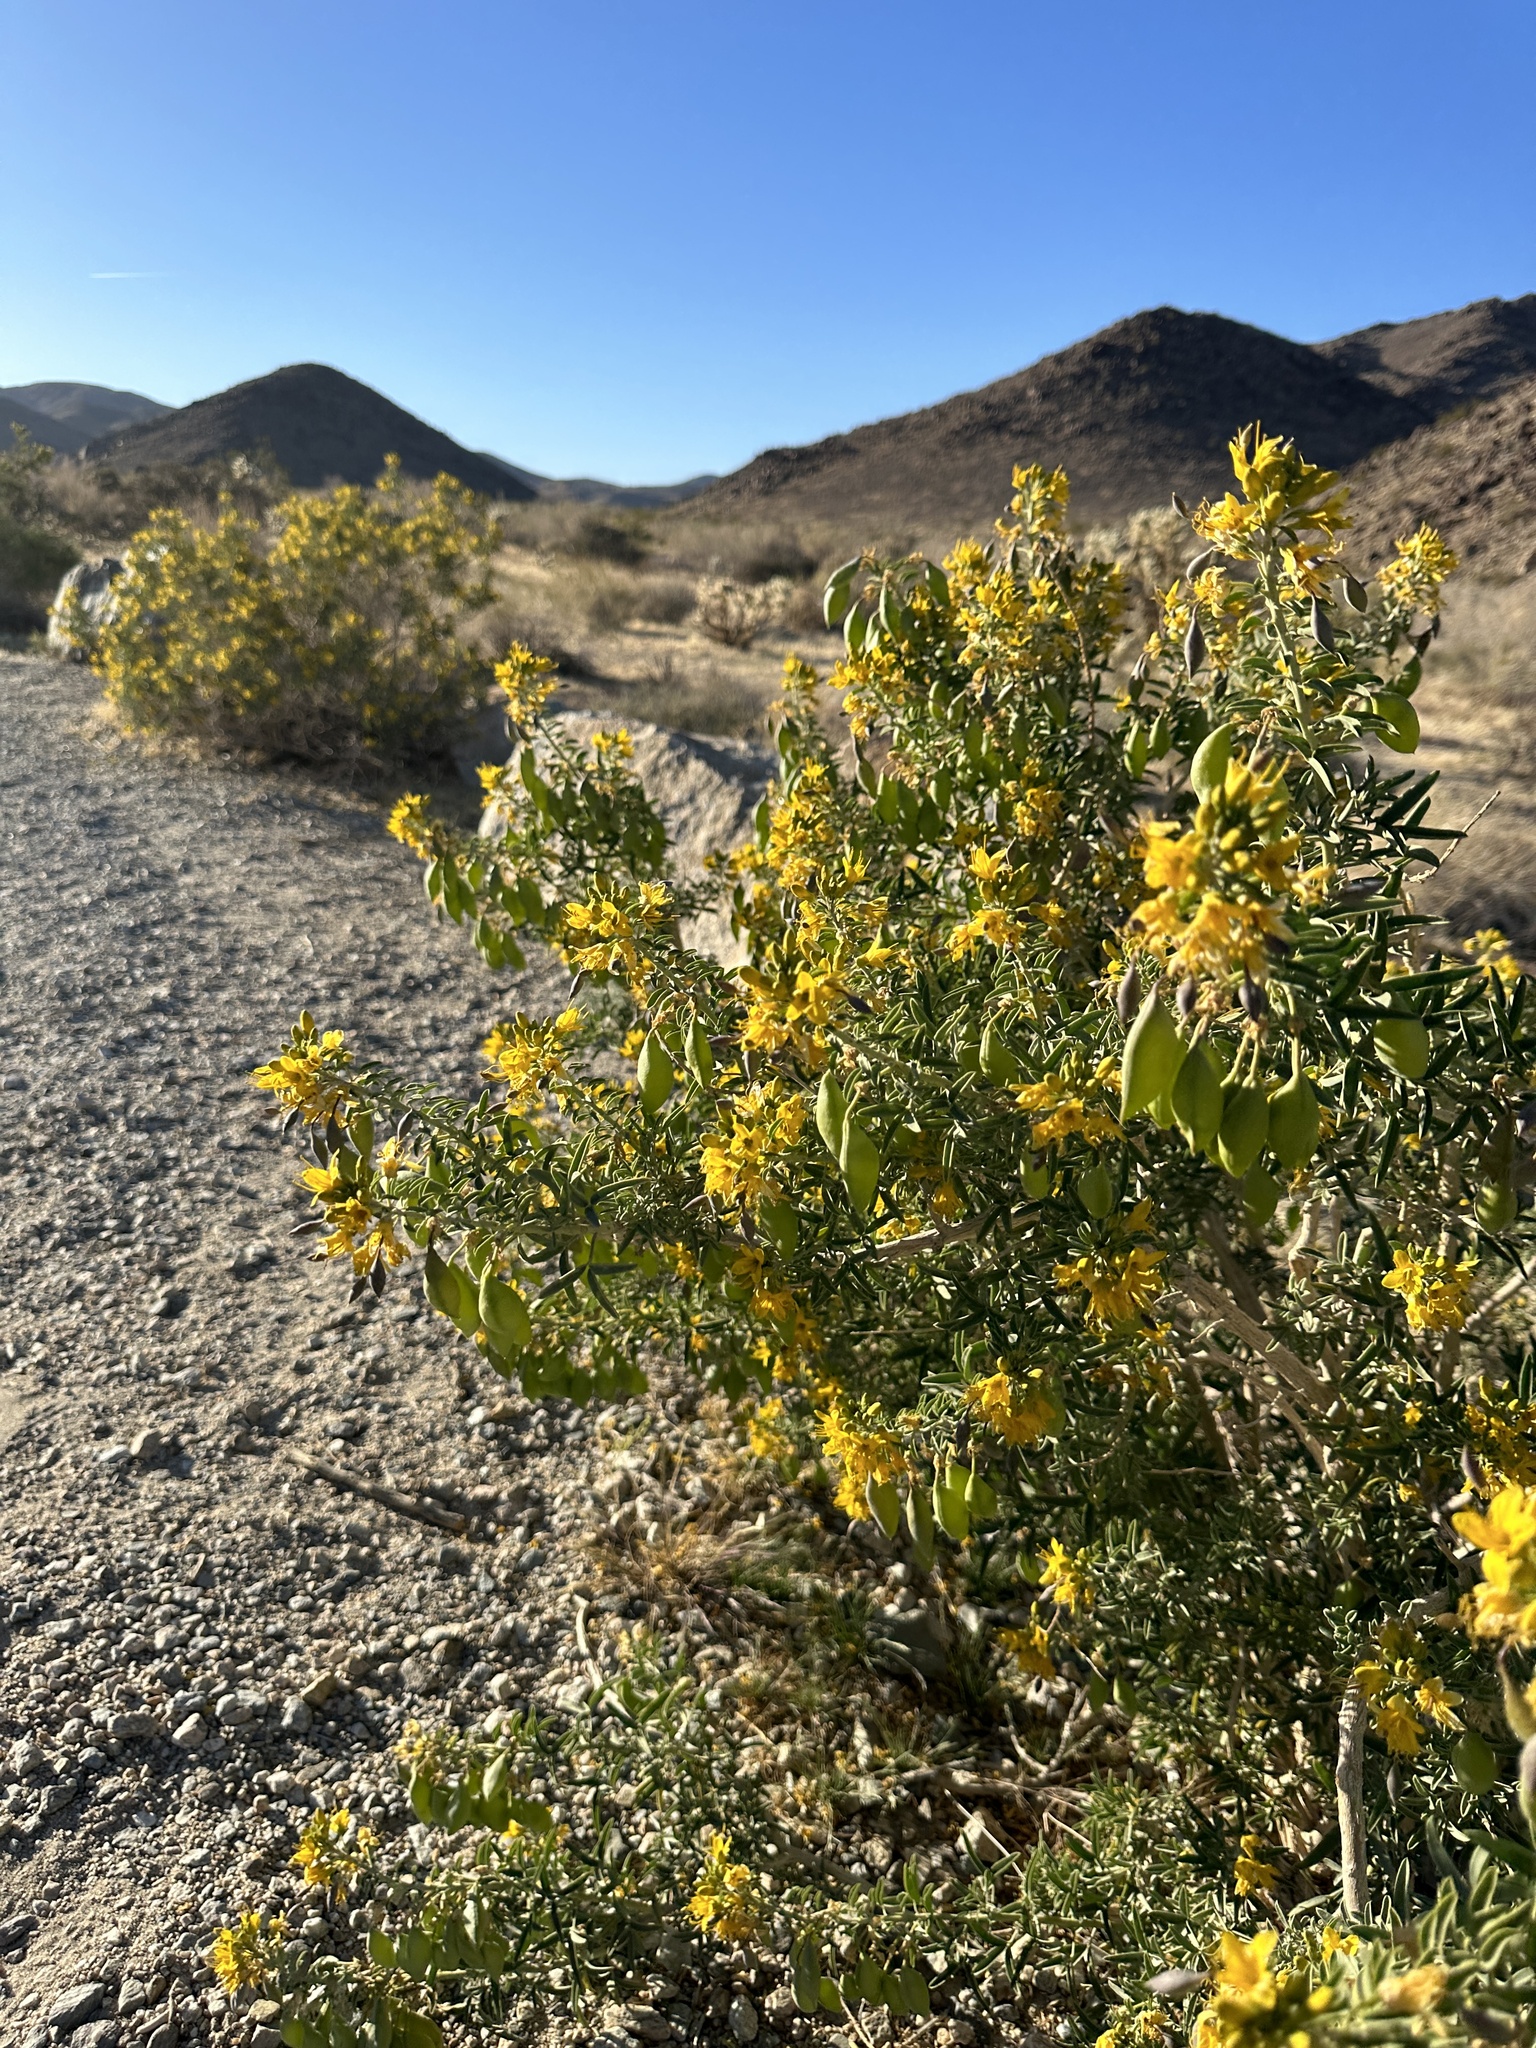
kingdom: Plantae
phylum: Tracheophyta
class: Magnoliopsida
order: Brassicales
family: Cleomaceae
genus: Cleomella
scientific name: Cleomella arborea
